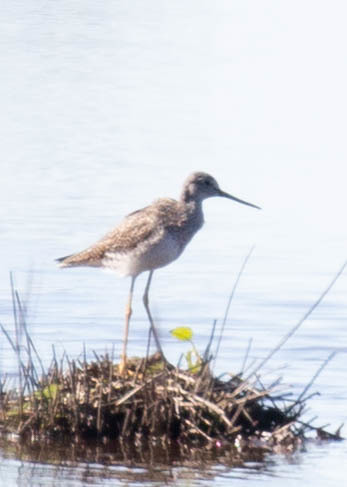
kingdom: Animalia
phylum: Chordata
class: Aves
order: Charadriiformes
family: Scolopacidae
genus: Tringa
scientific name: Tringa melanoleuca
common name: Greater yellowlegs
